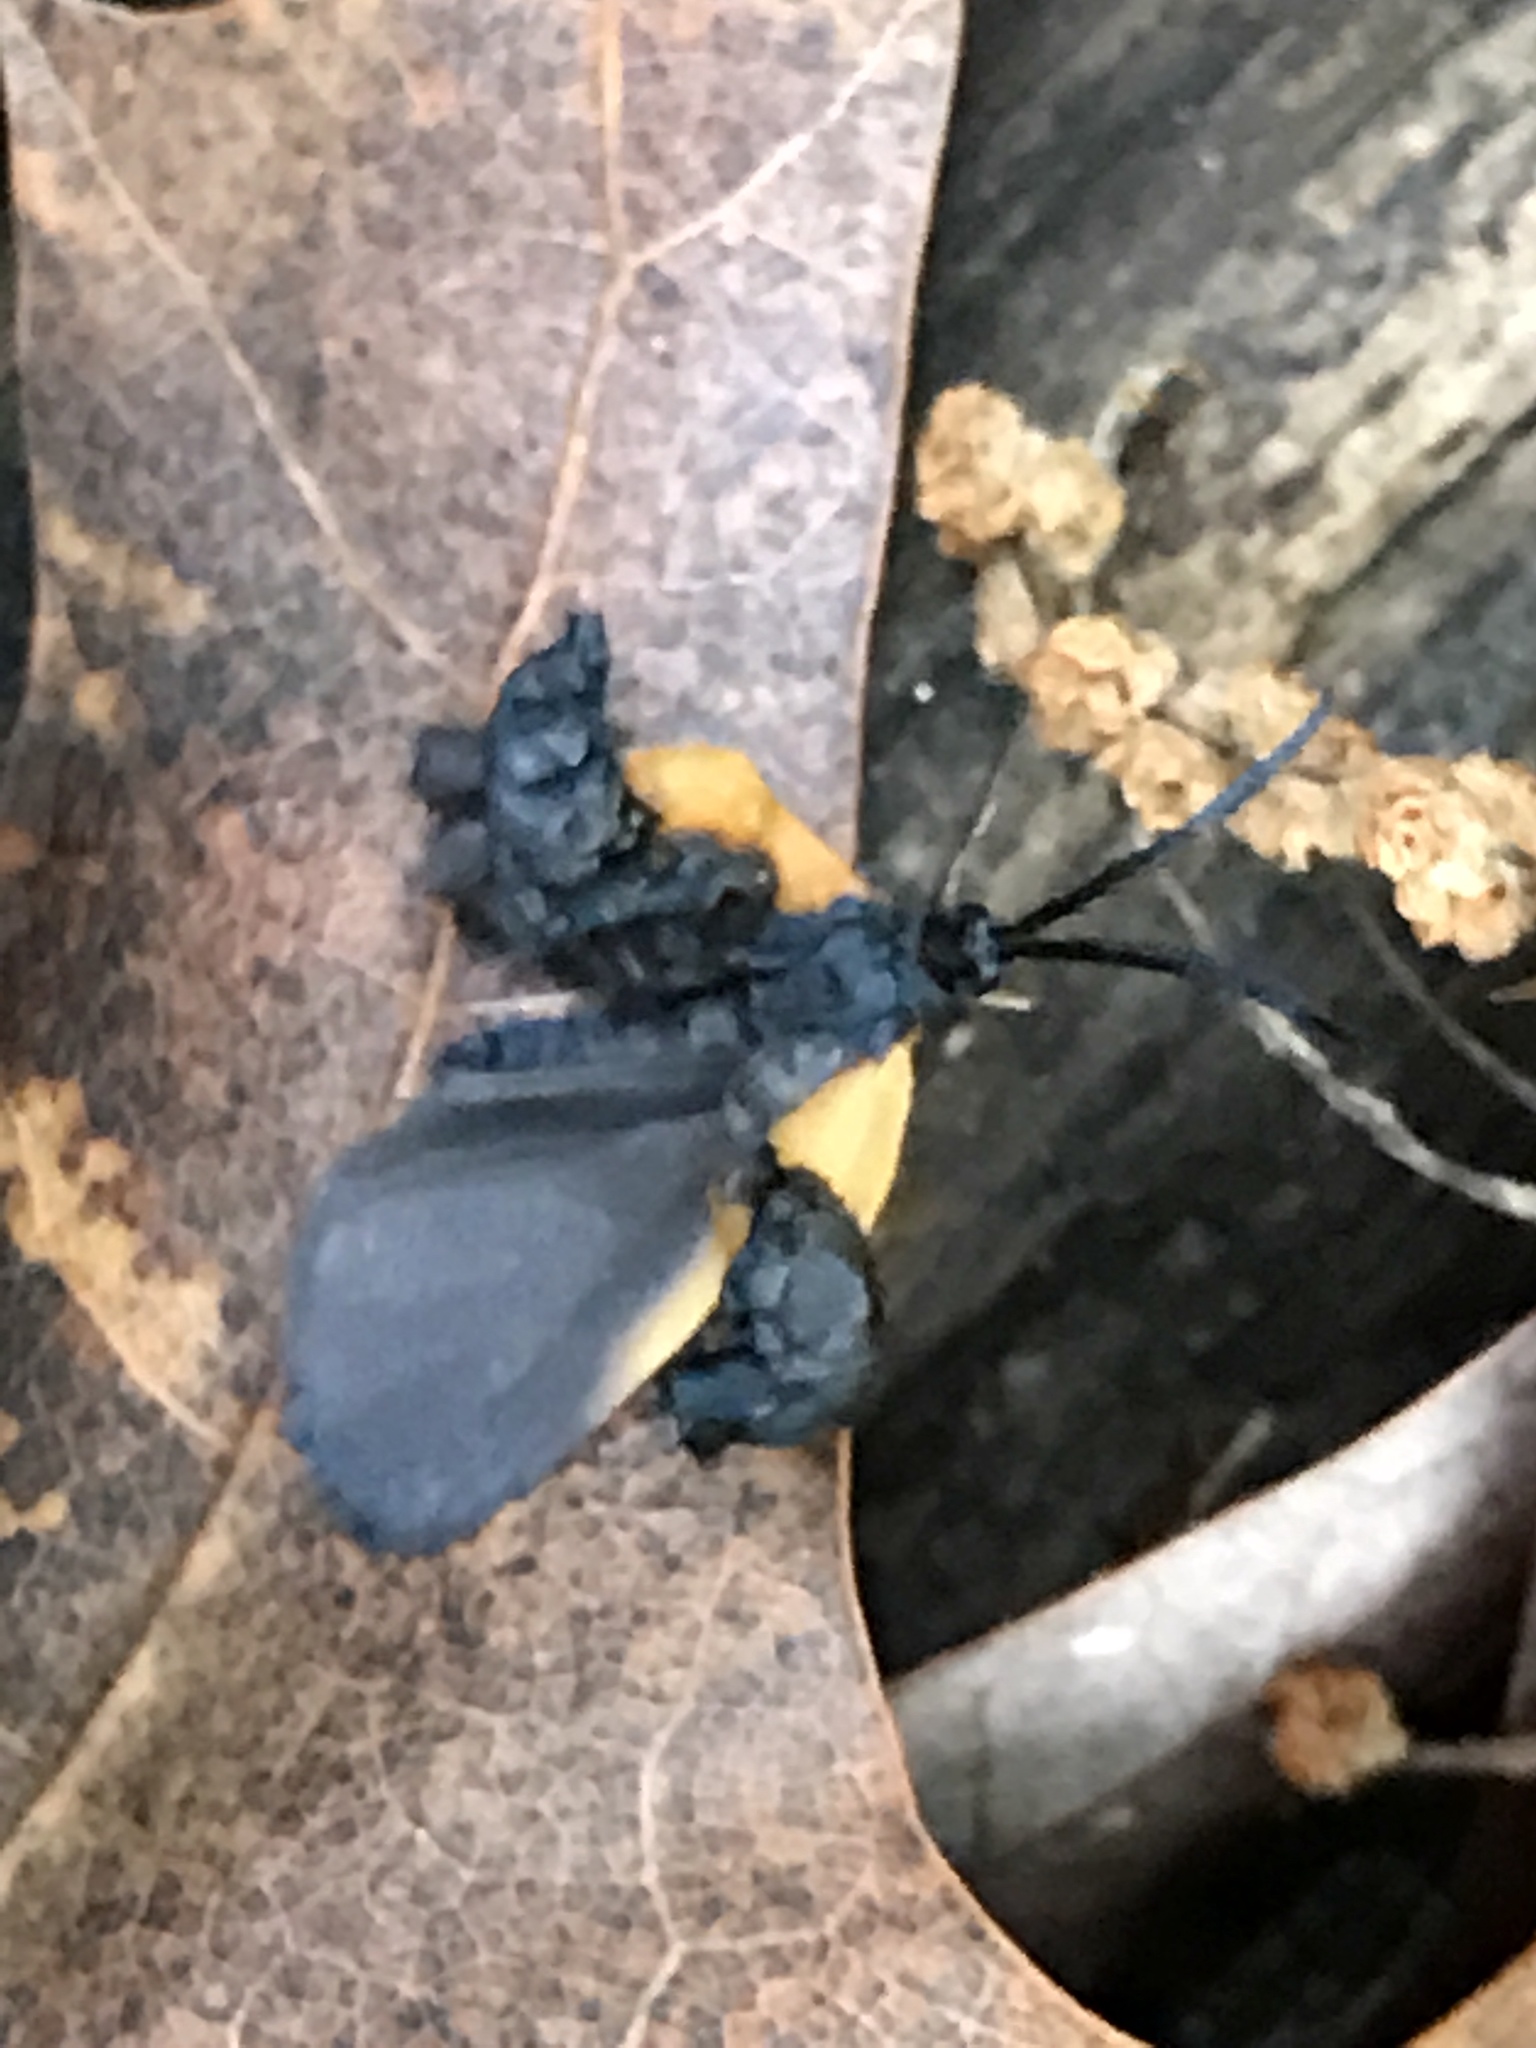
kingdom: Animalia
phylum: Arthropoda
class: Insecta
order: Lepidoptera
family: Zygaenidae
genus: Malthaca
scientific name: Malthaca dimidiata
